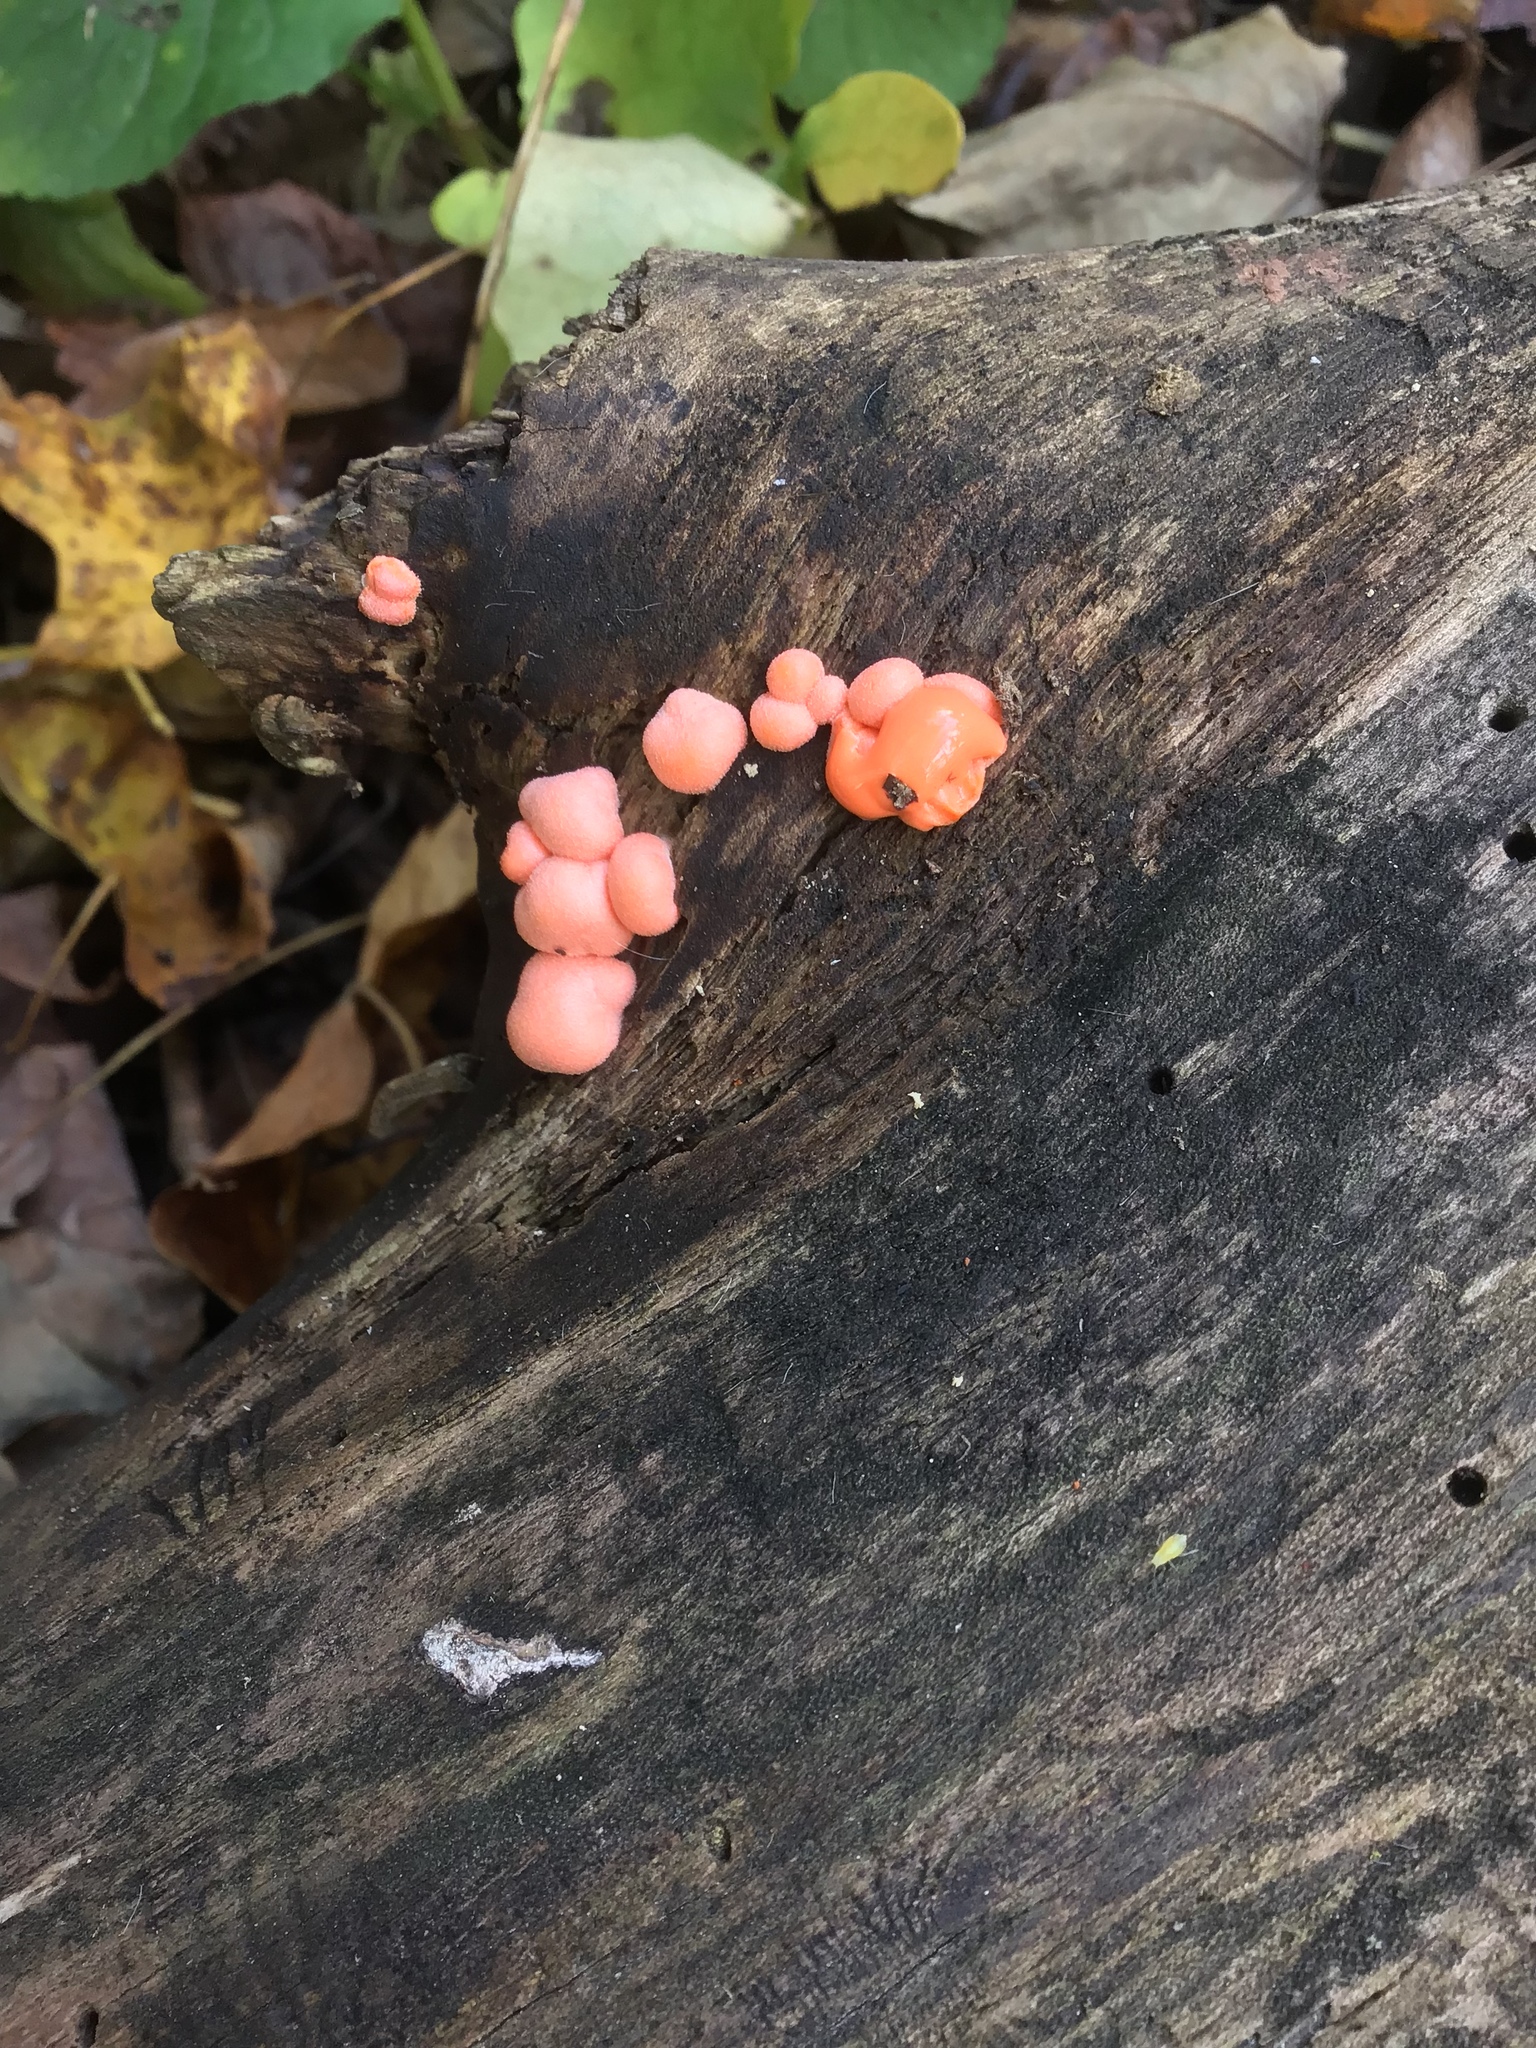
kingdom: Protozoa
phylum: Mycetozoa
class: Myxomycetes
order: Cribrariales
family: Tubiferaceae
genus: Lycogala
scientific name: Lycogala epidendrum
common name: Wolf's milk
